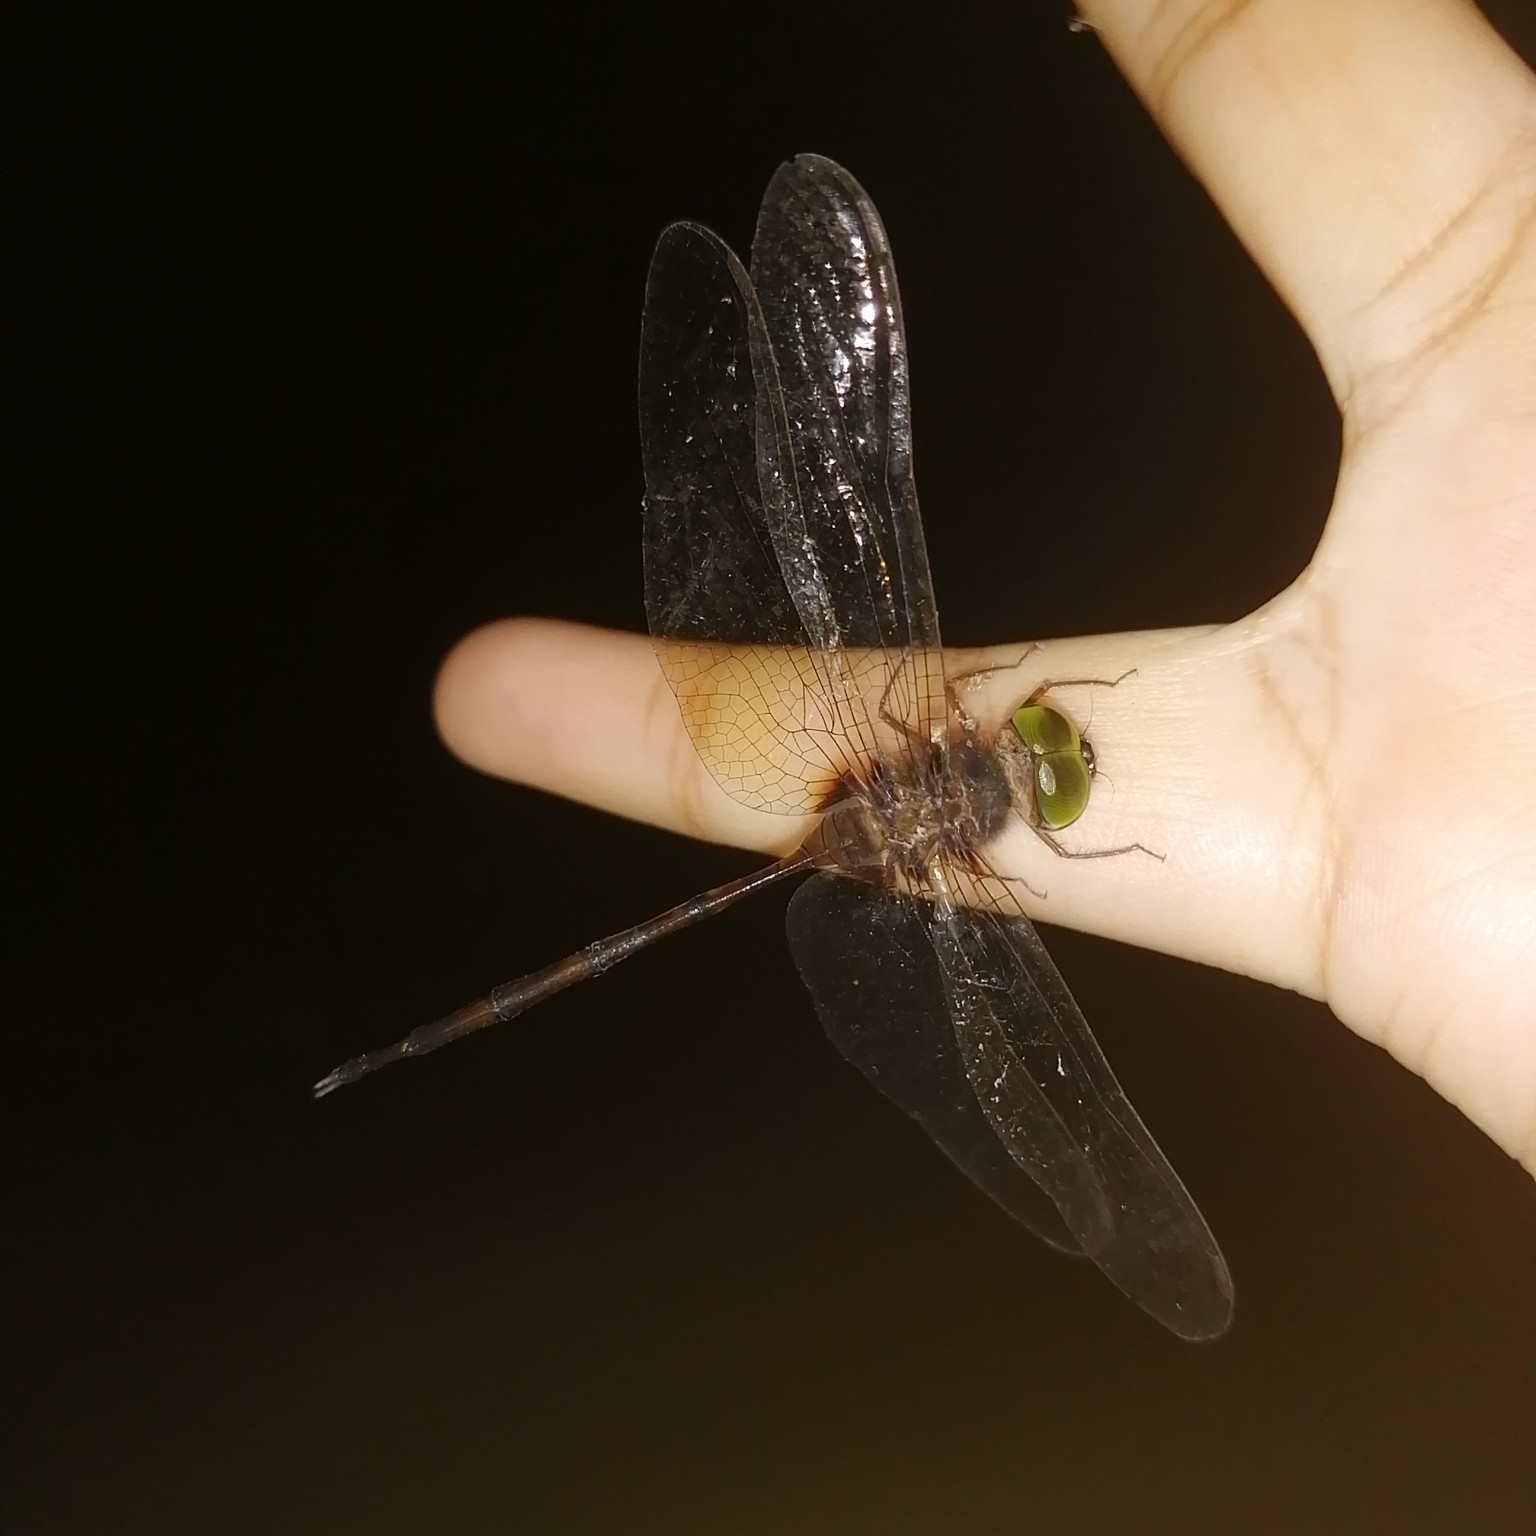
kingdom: Animalia
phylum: Arthropoda
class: Insecta
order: Odonata
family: Libellulidae
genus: Zyxomma
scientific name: Zyxomma petiolatum
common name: Dingy dusk-darter
